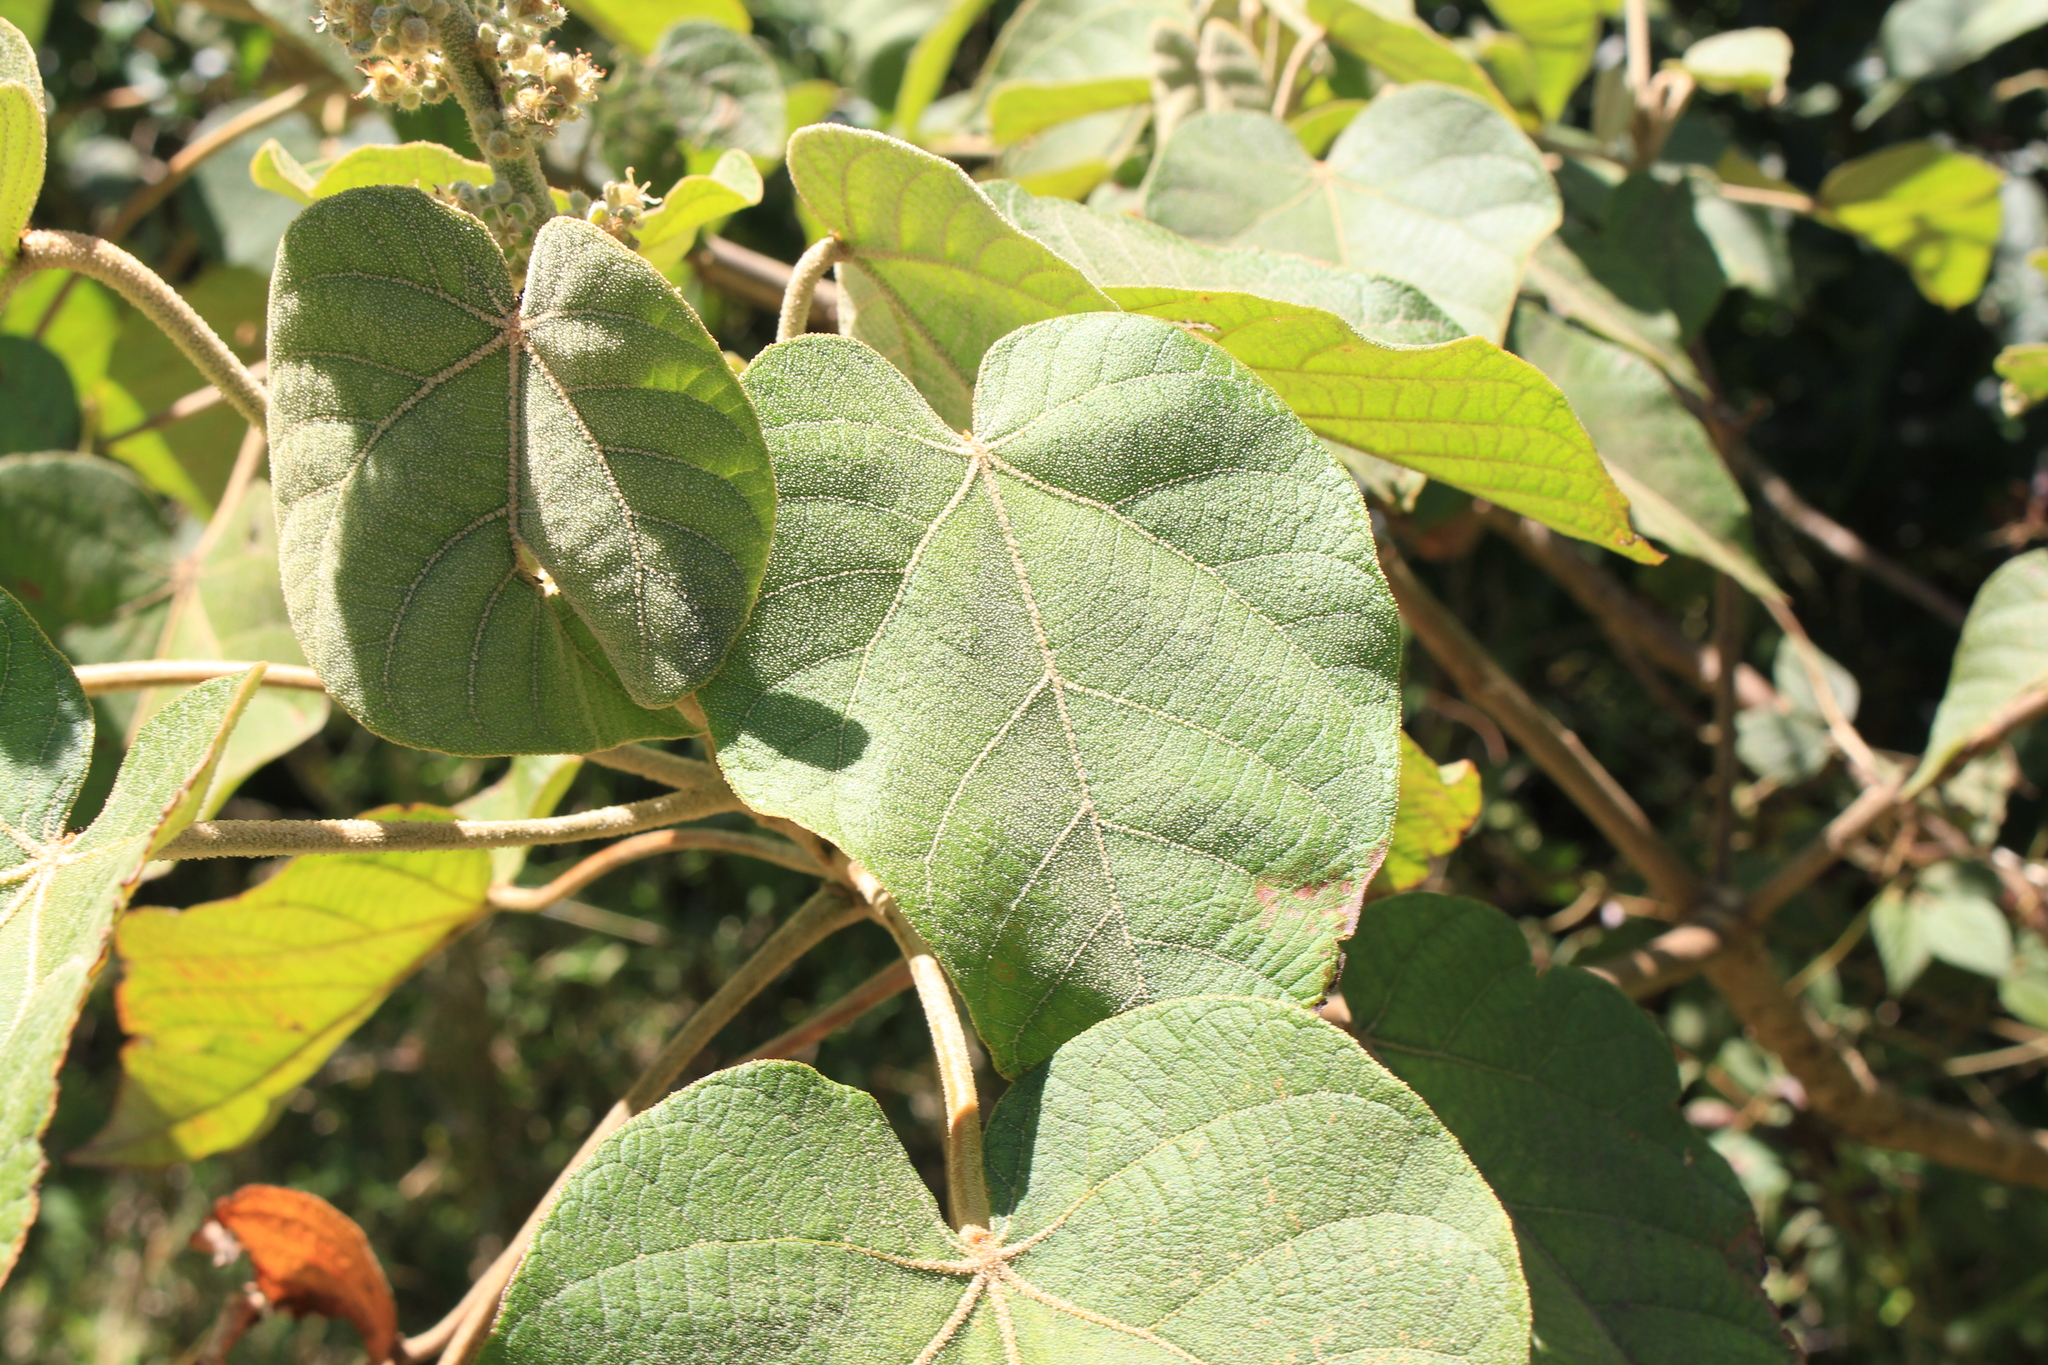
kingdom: Plantae
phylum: Tracheophyta
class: Magnoliopsida
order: Malpighiales
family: Euphorbiaceae
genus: Croton
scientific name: Croton draco
